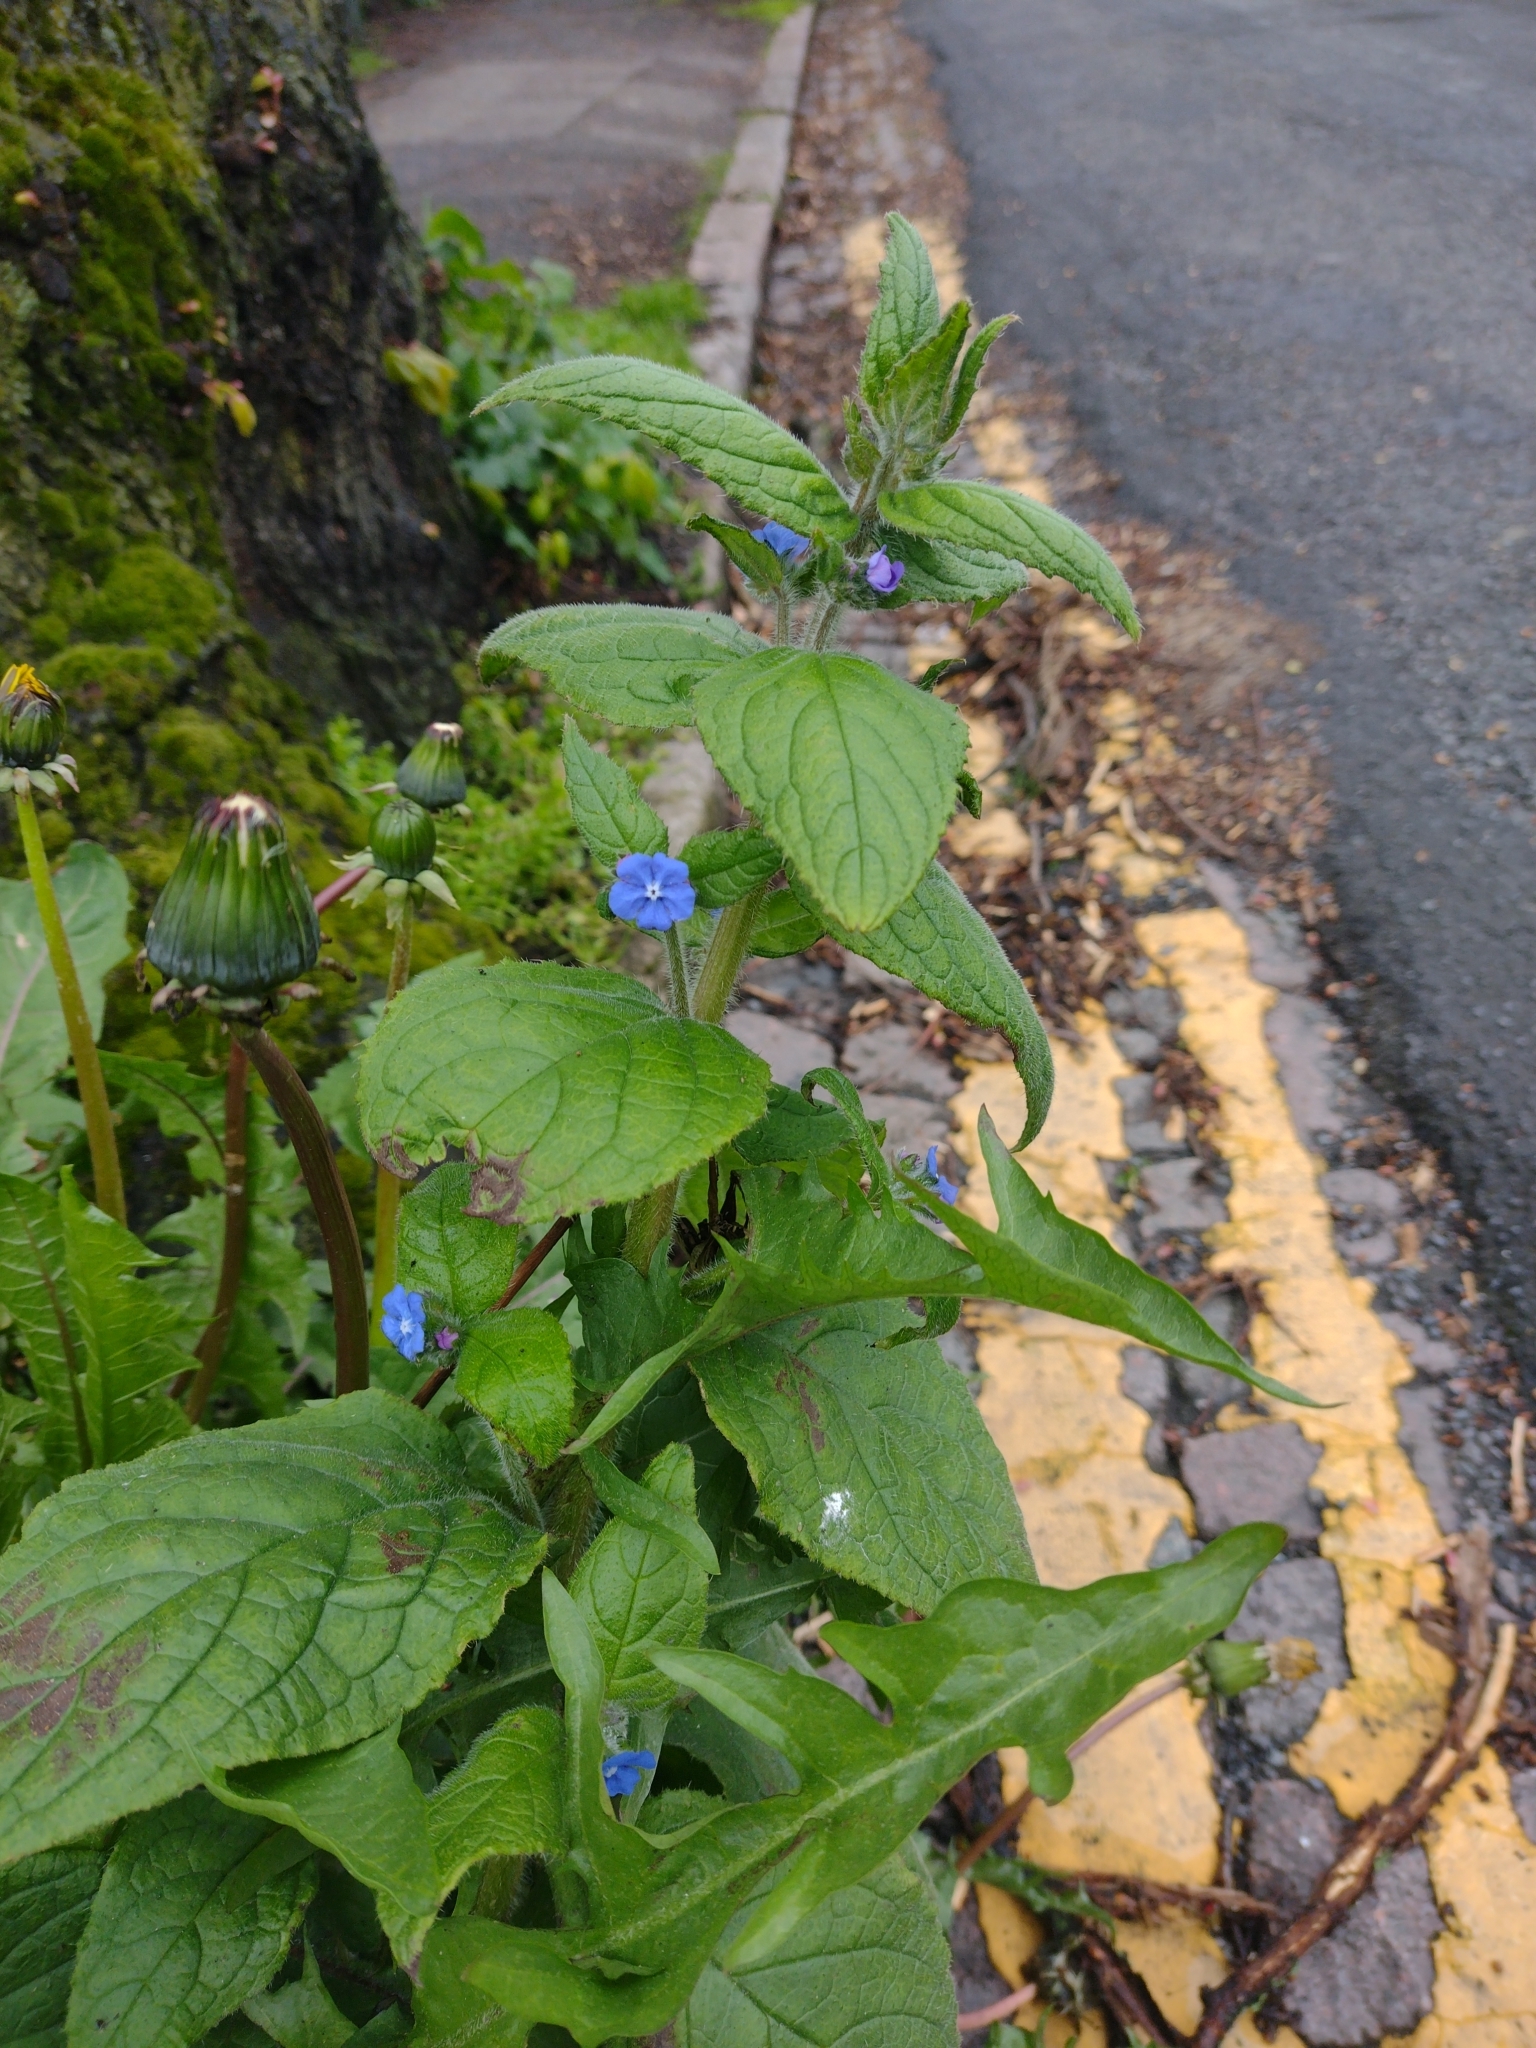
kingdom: Plantae
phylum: Tracheophyta
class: Magnoliopsida
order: Boraginales
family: Boraginaceae
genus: Pentaglottis
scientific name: Pentaglottis sempervirens
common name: Green alkanet
